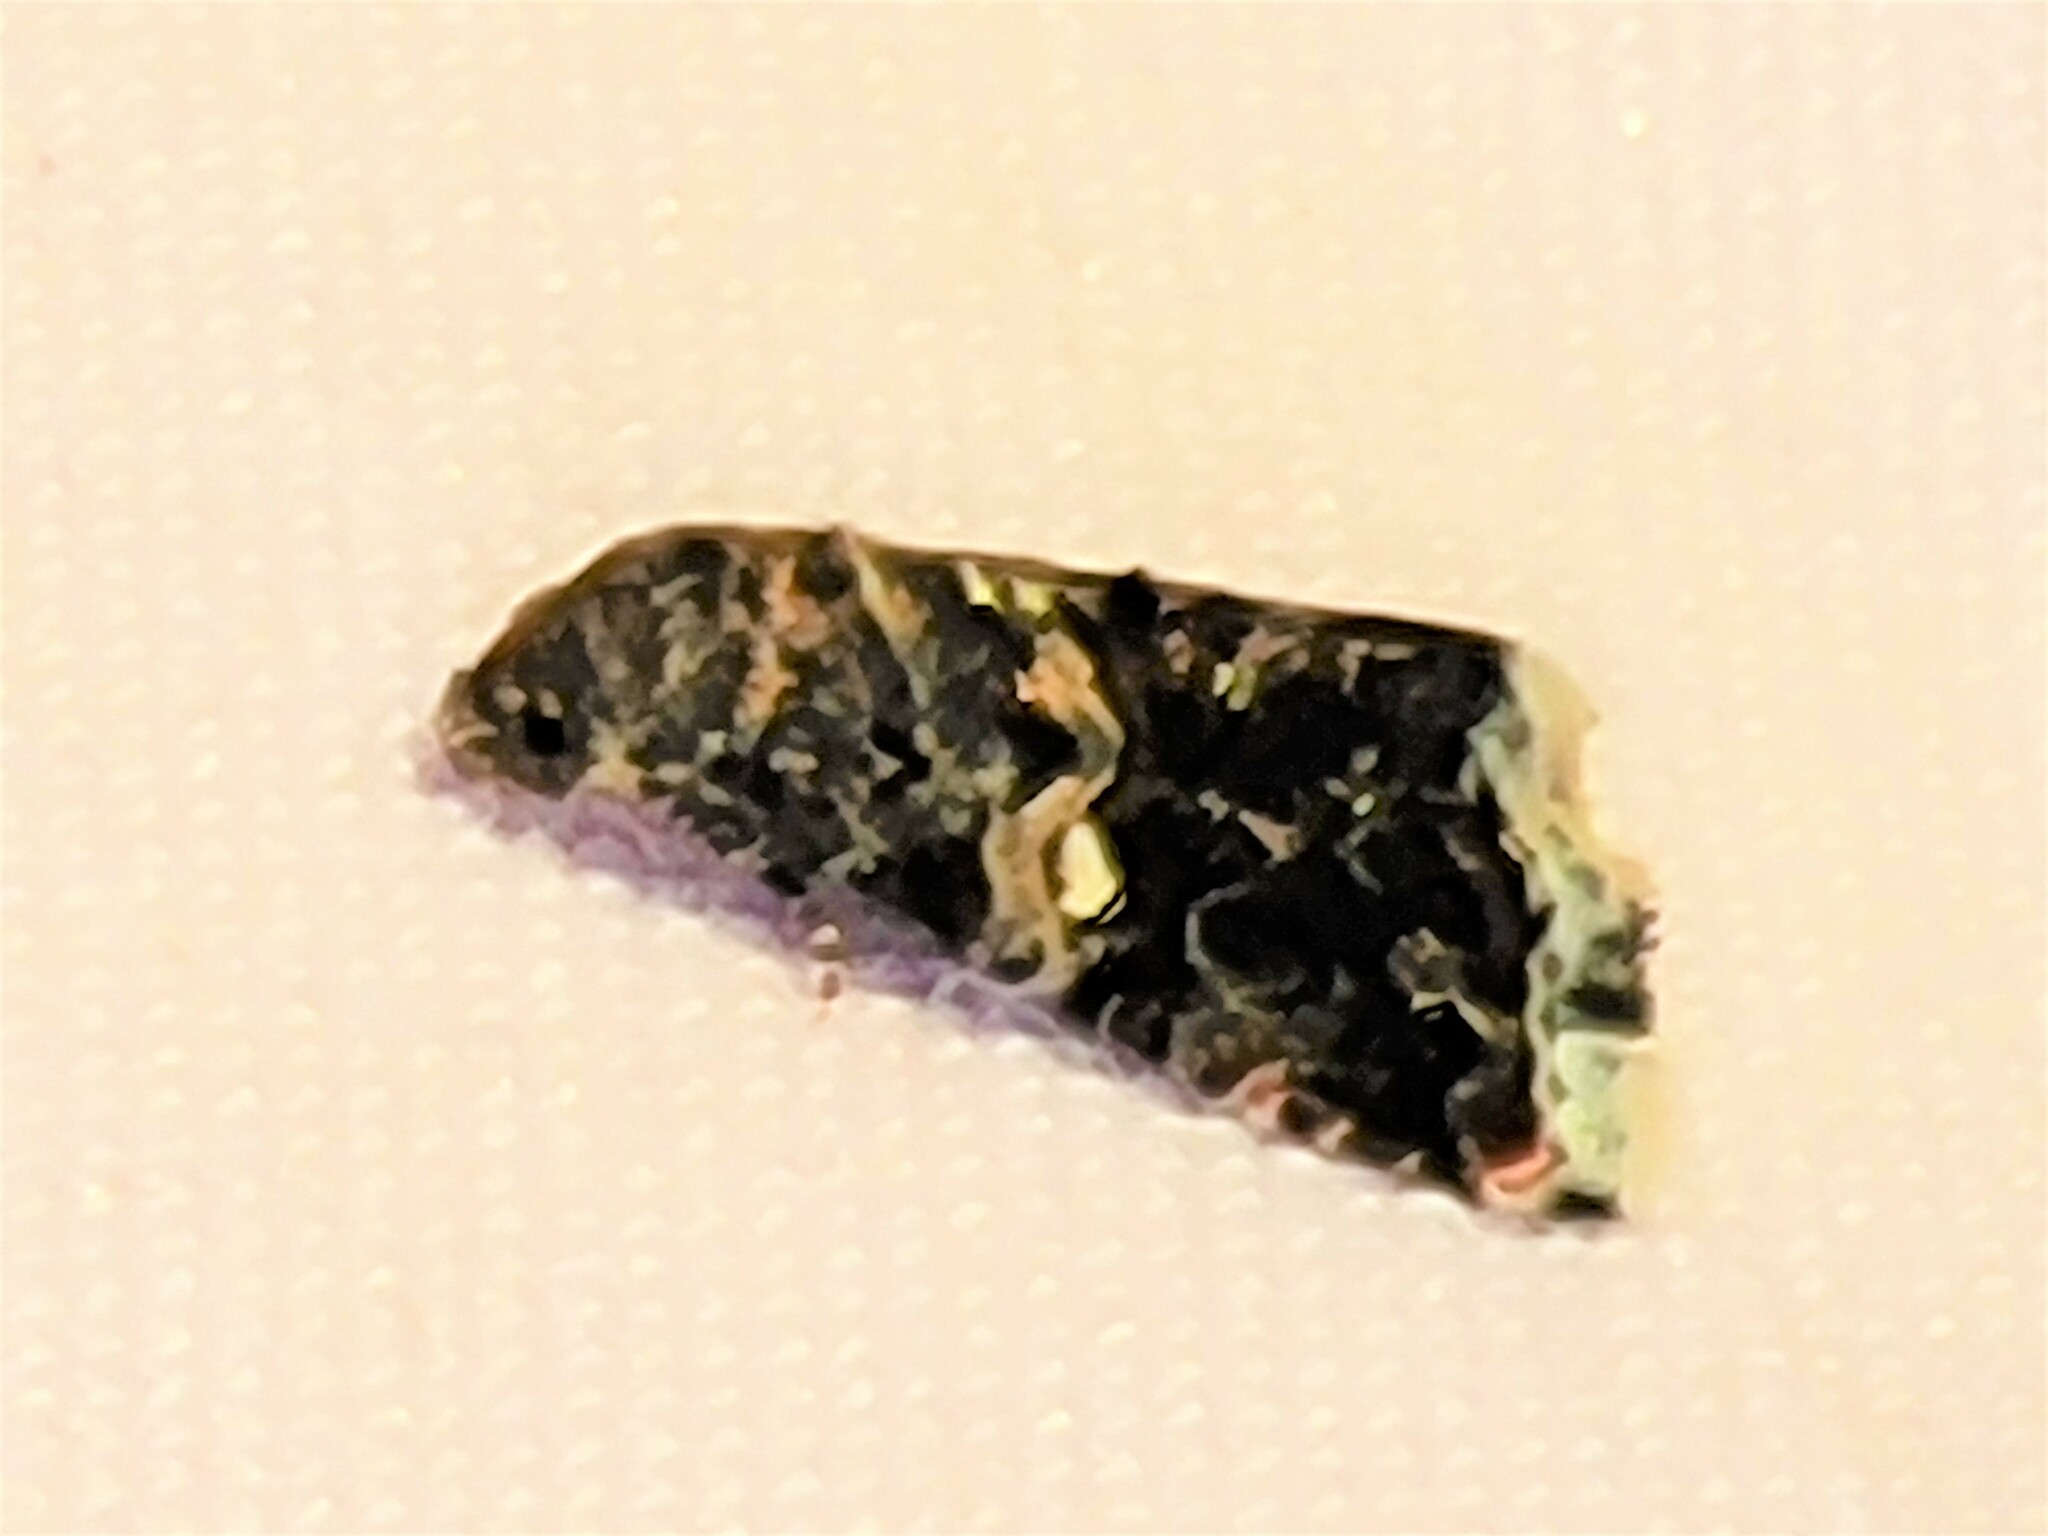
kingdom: Animalia
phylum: Arthropoda
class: Insecta
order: Lepidoptera
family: Noctuidae
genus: Tripudia
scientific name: Tripudia luxuriosa
